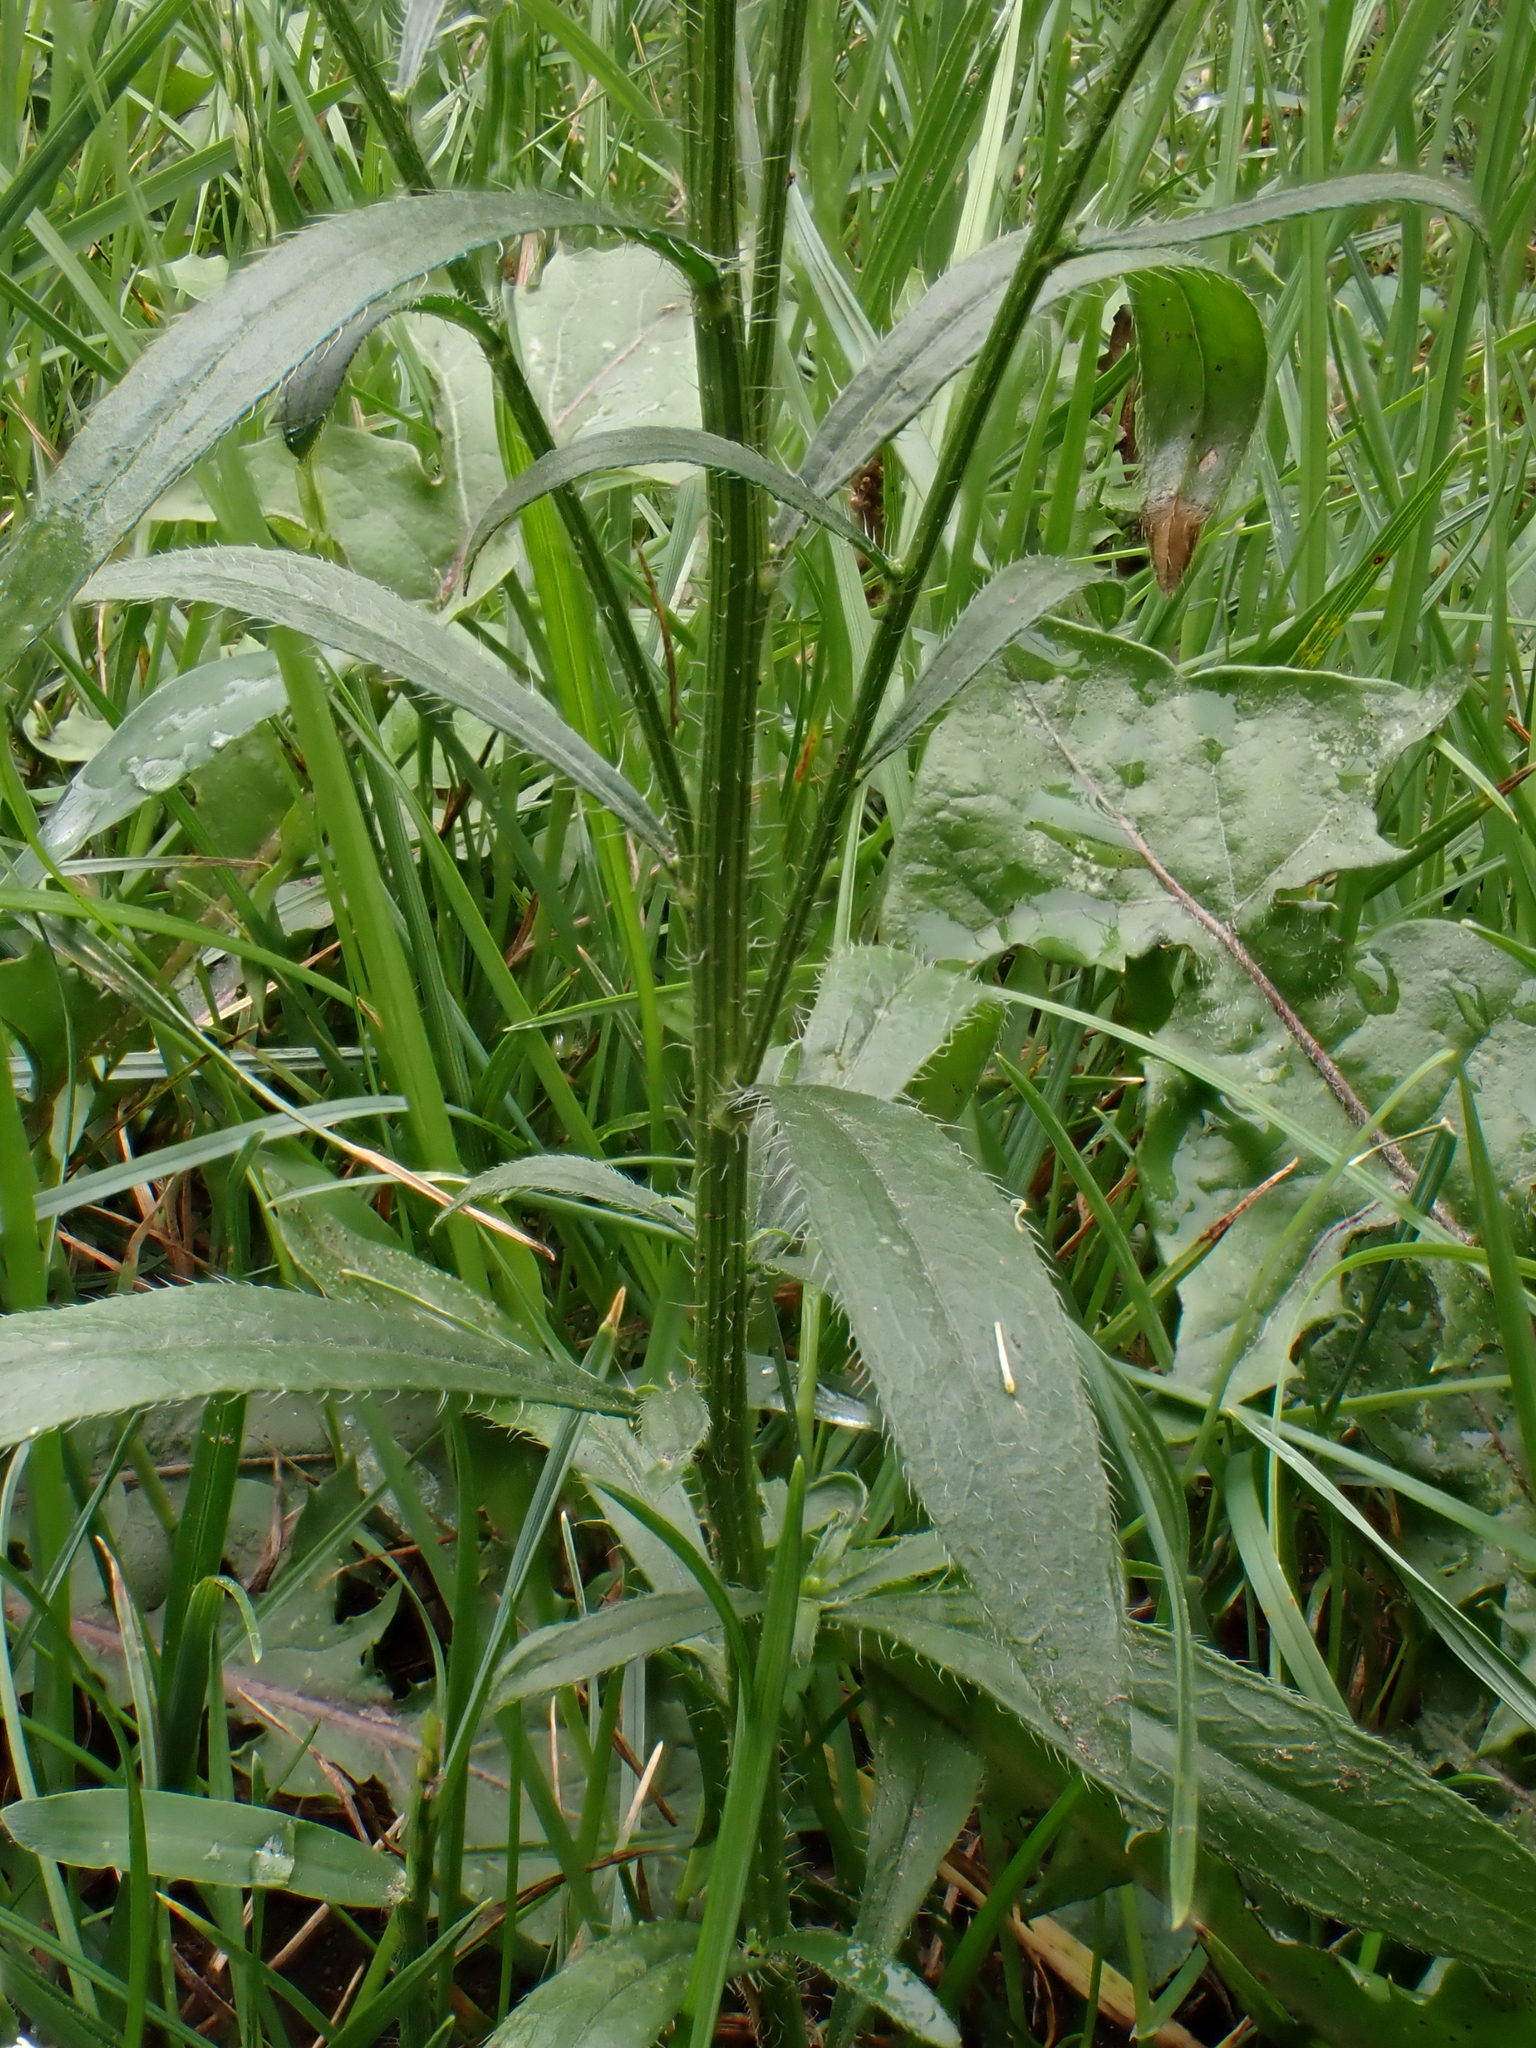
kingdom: Plantae
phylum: Tracheophyta
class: Magnoliopsida
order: Asterales
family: Asteraceae
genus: Erigeron
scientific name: Erigeron canadensis
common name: Canadian fleabane
